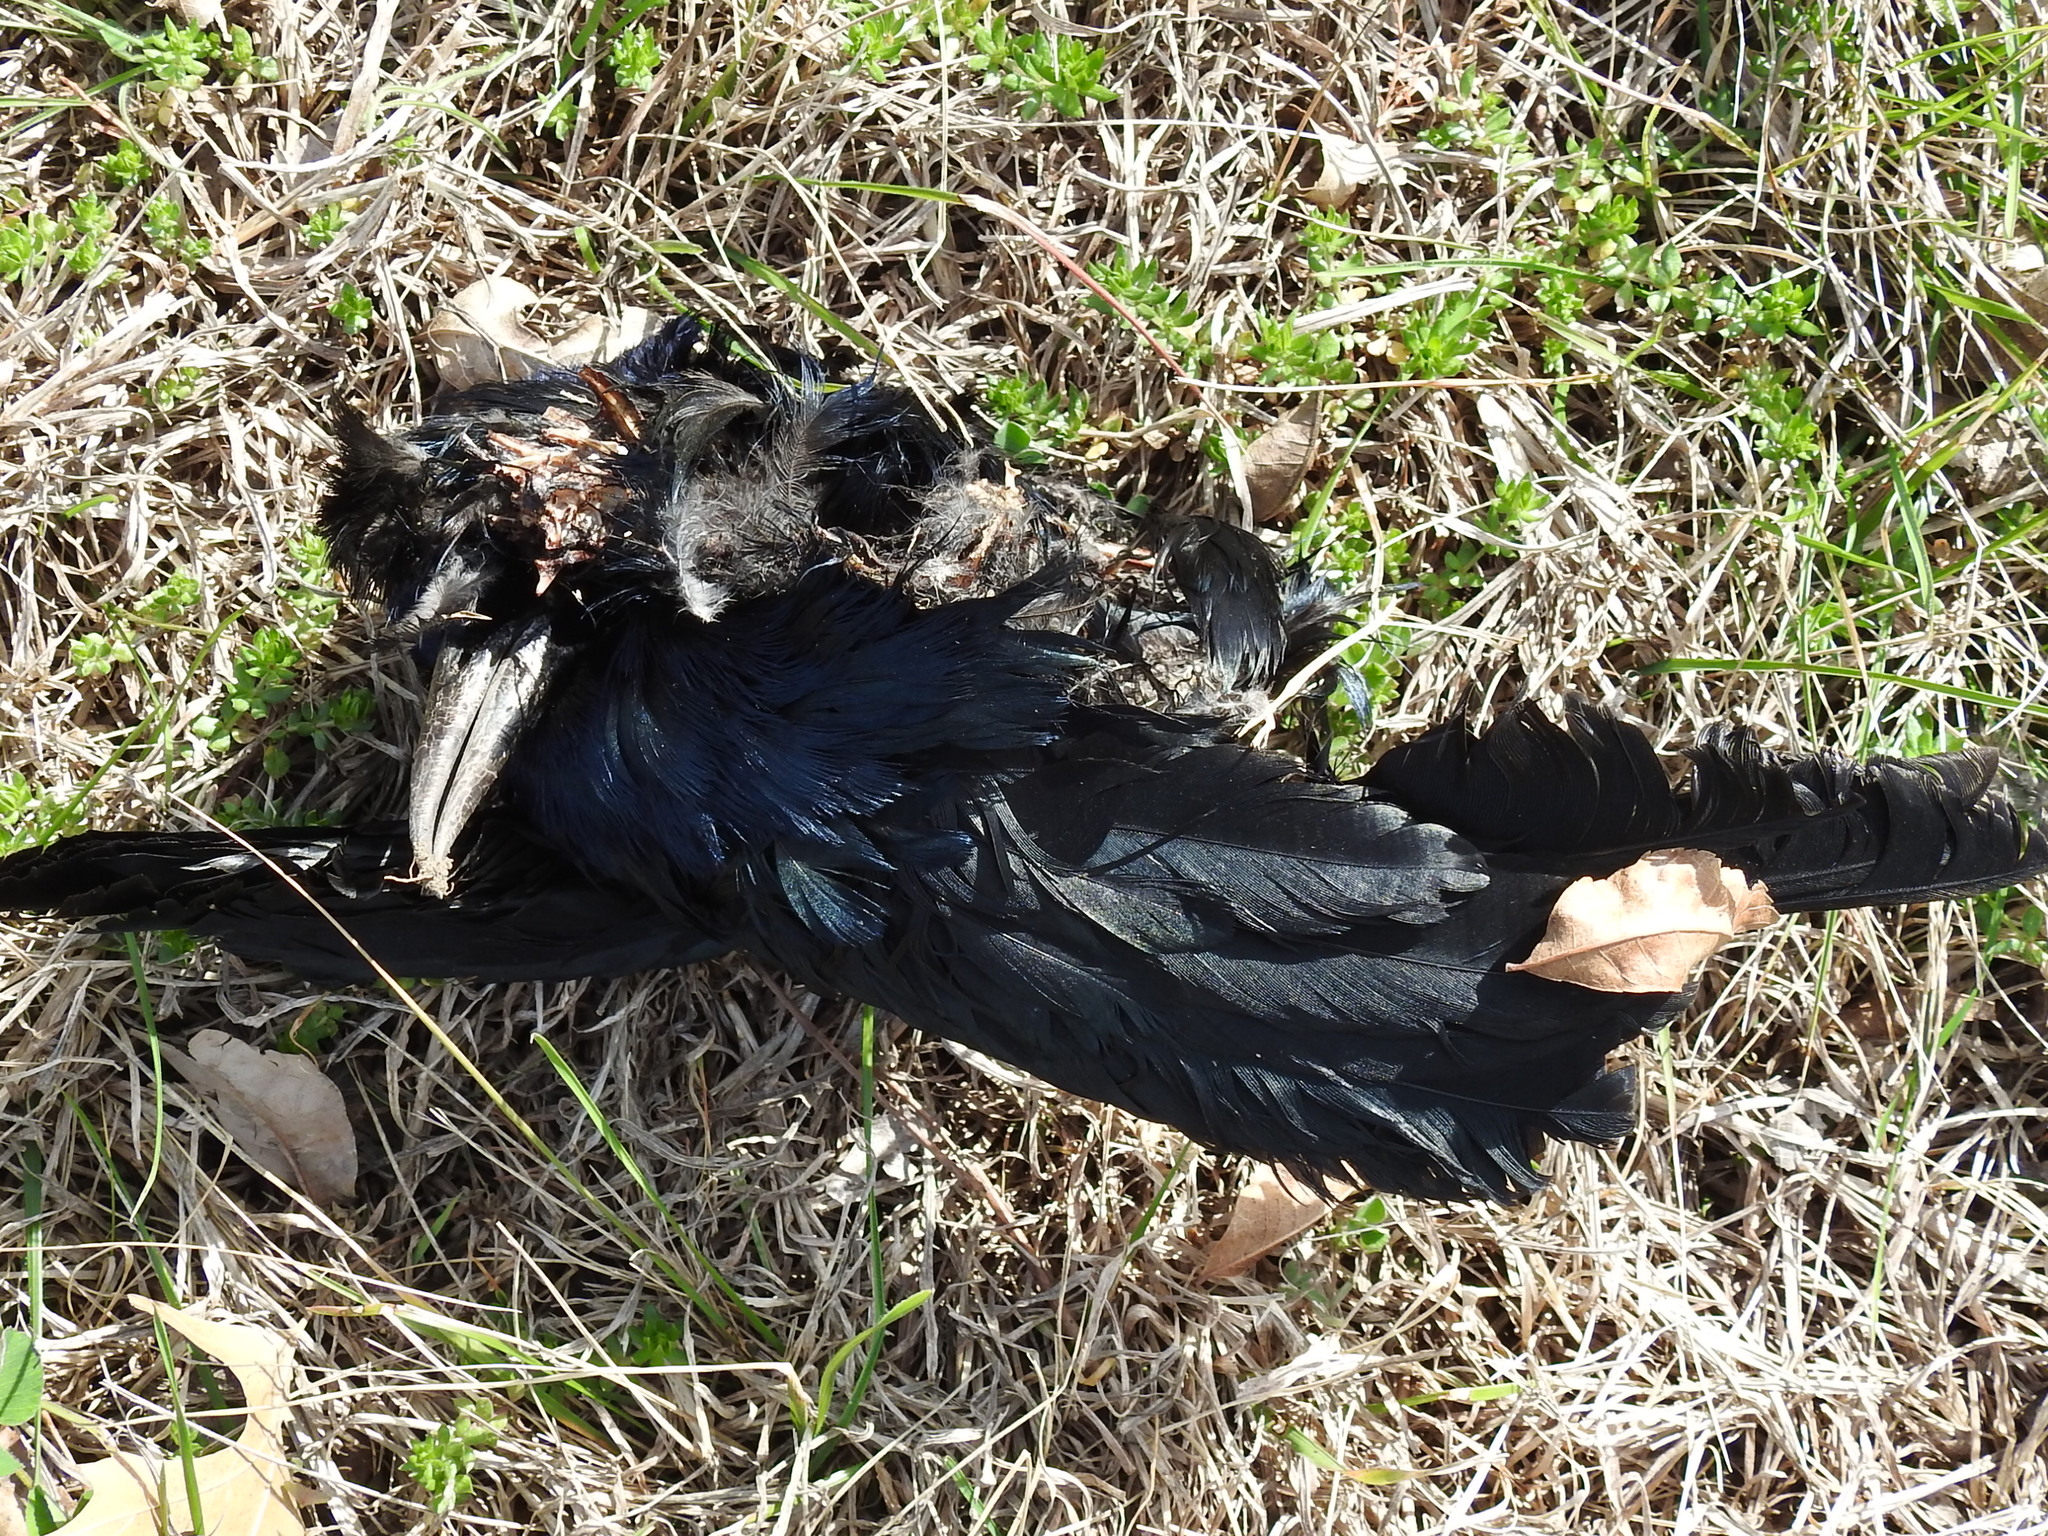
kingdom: Animalia
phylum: Chordata
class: Aves
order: Passeriformes
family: Icteridae
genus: Quiscalus
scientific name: Quiscalus mexicanus
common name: Great-tailed grackle
